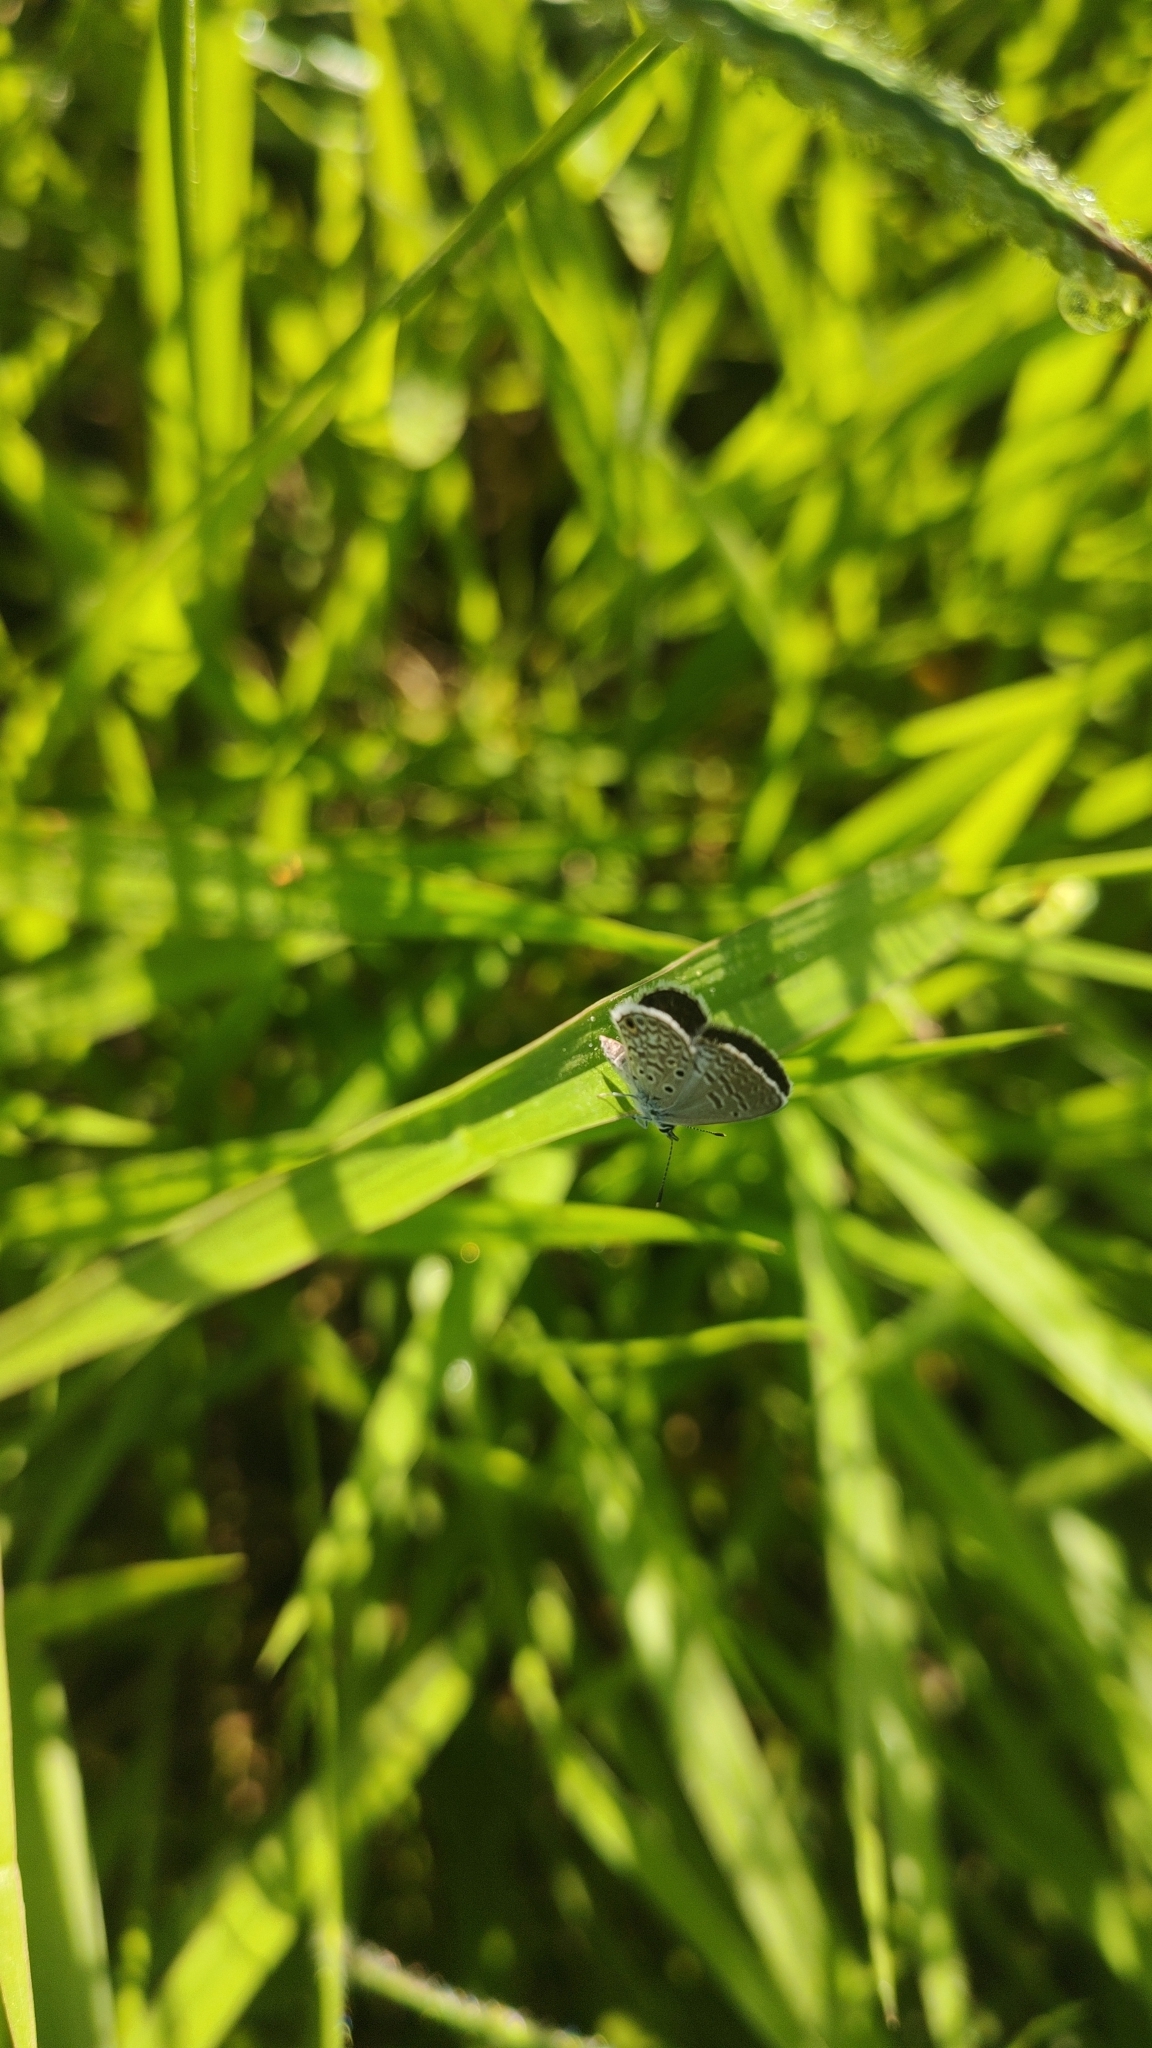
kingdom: Animalia
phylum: Arthropoda
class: Insecta
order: Lepidoptera
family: Lycaenidae
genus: Hemiargus
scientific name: Hemiargus hanno
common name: Common blue
